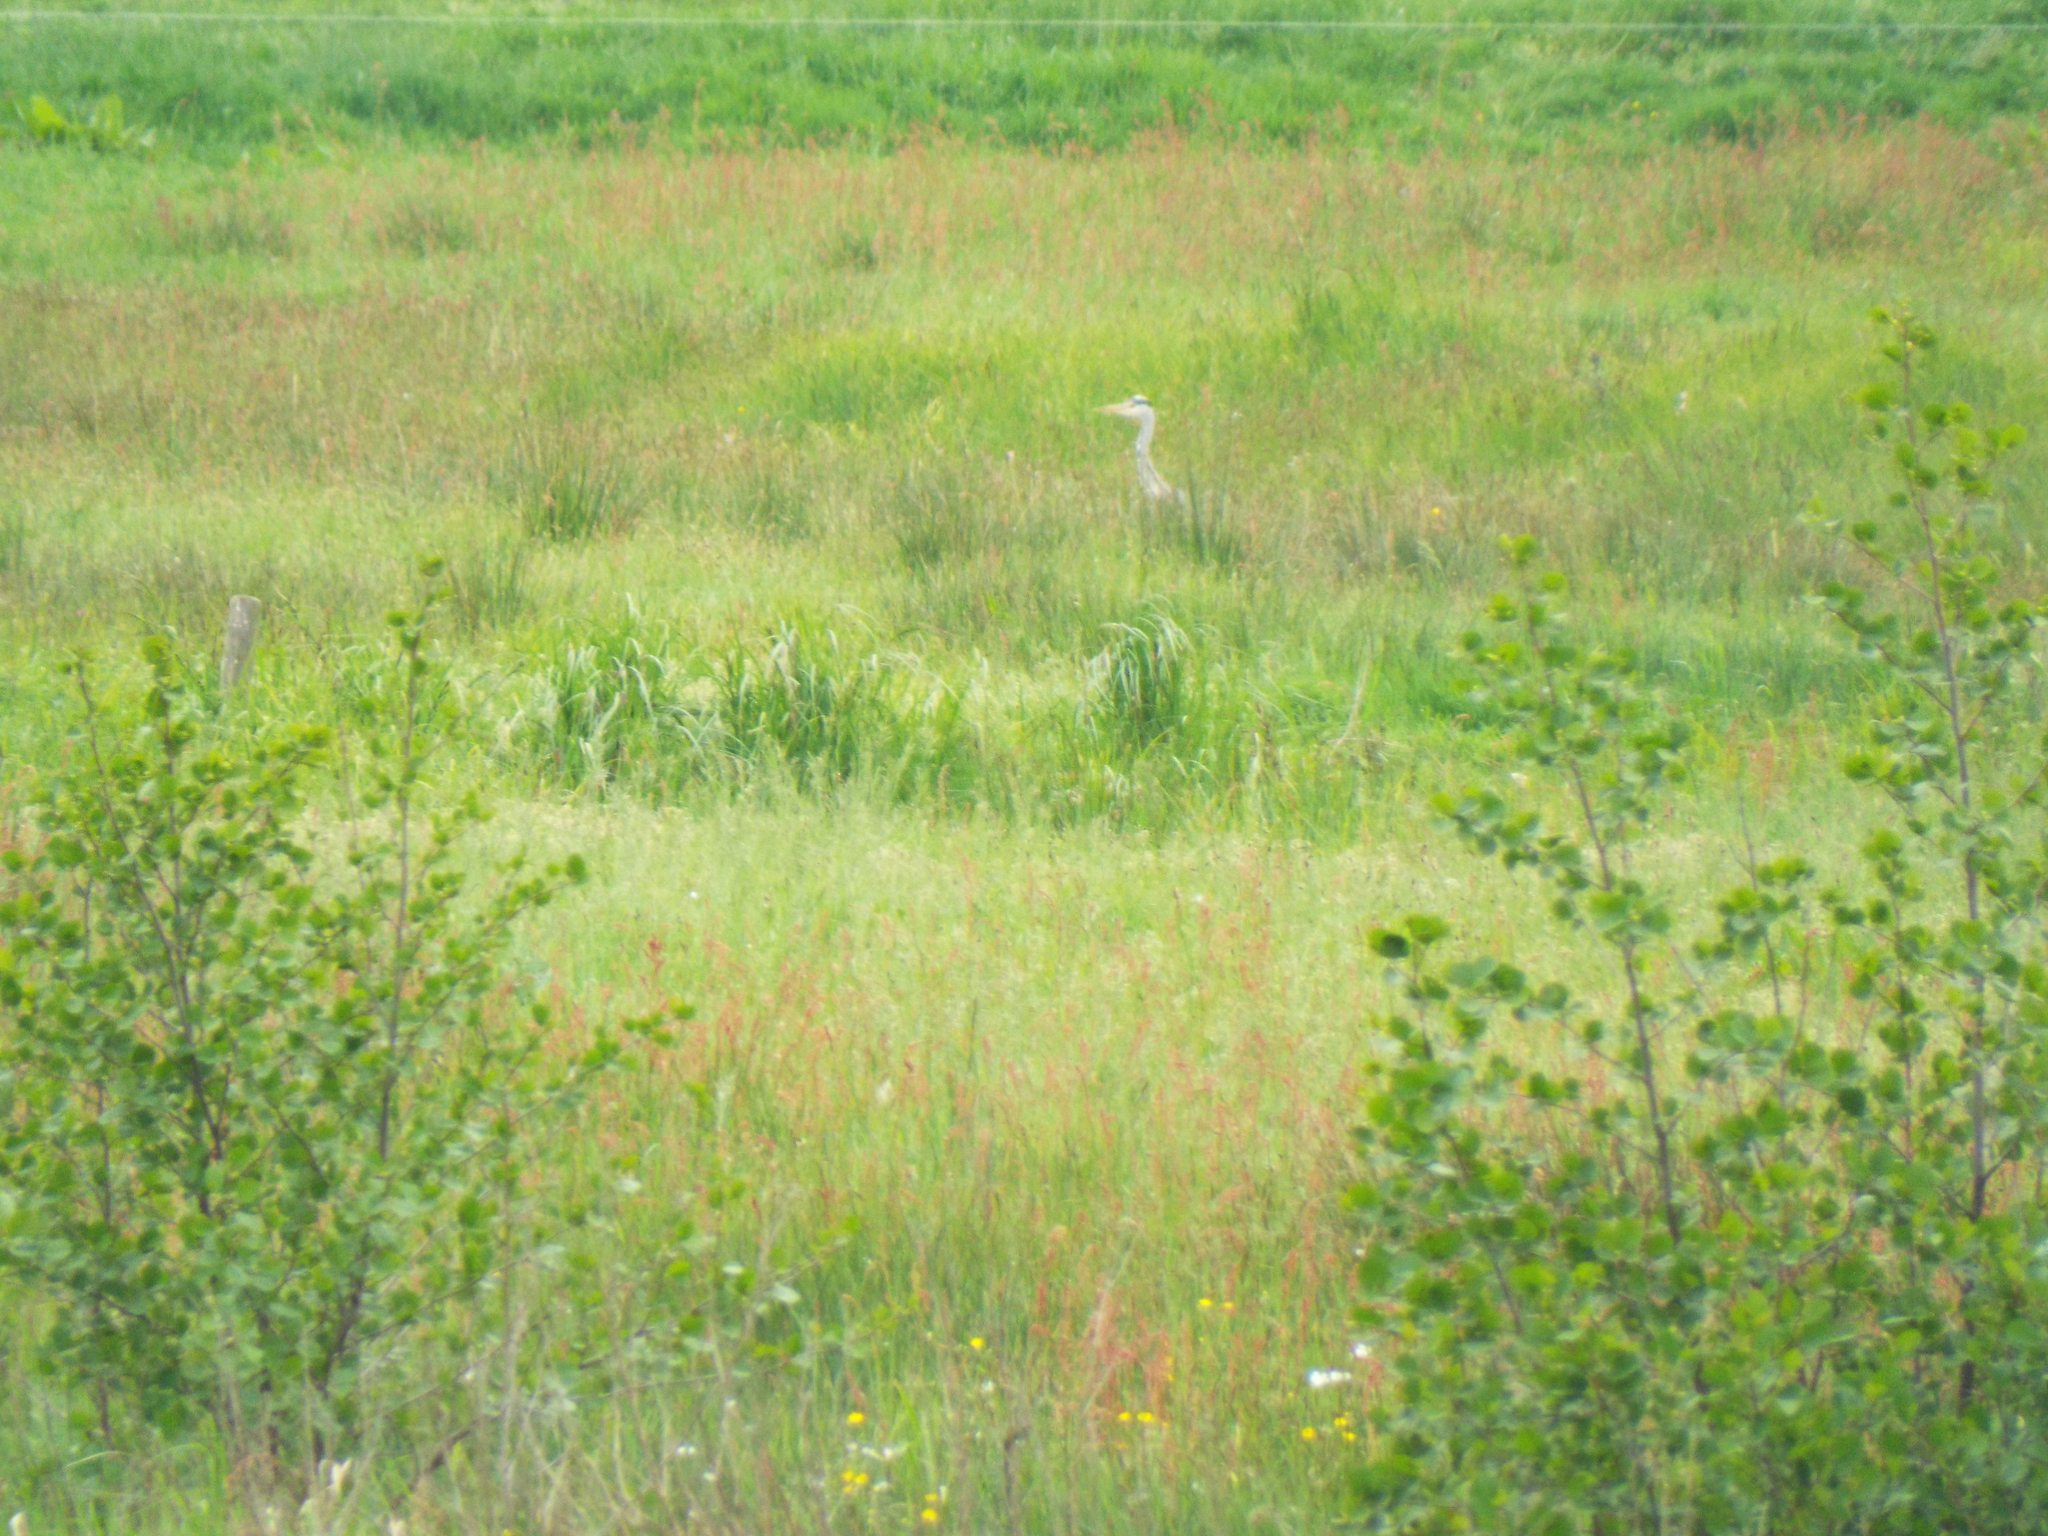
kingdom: Animalia
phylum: Chordata
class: Aves
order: Pelecaniformes
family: Ardeidae
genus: Ardea
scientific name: Ardea cinerea
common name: Grey heron
